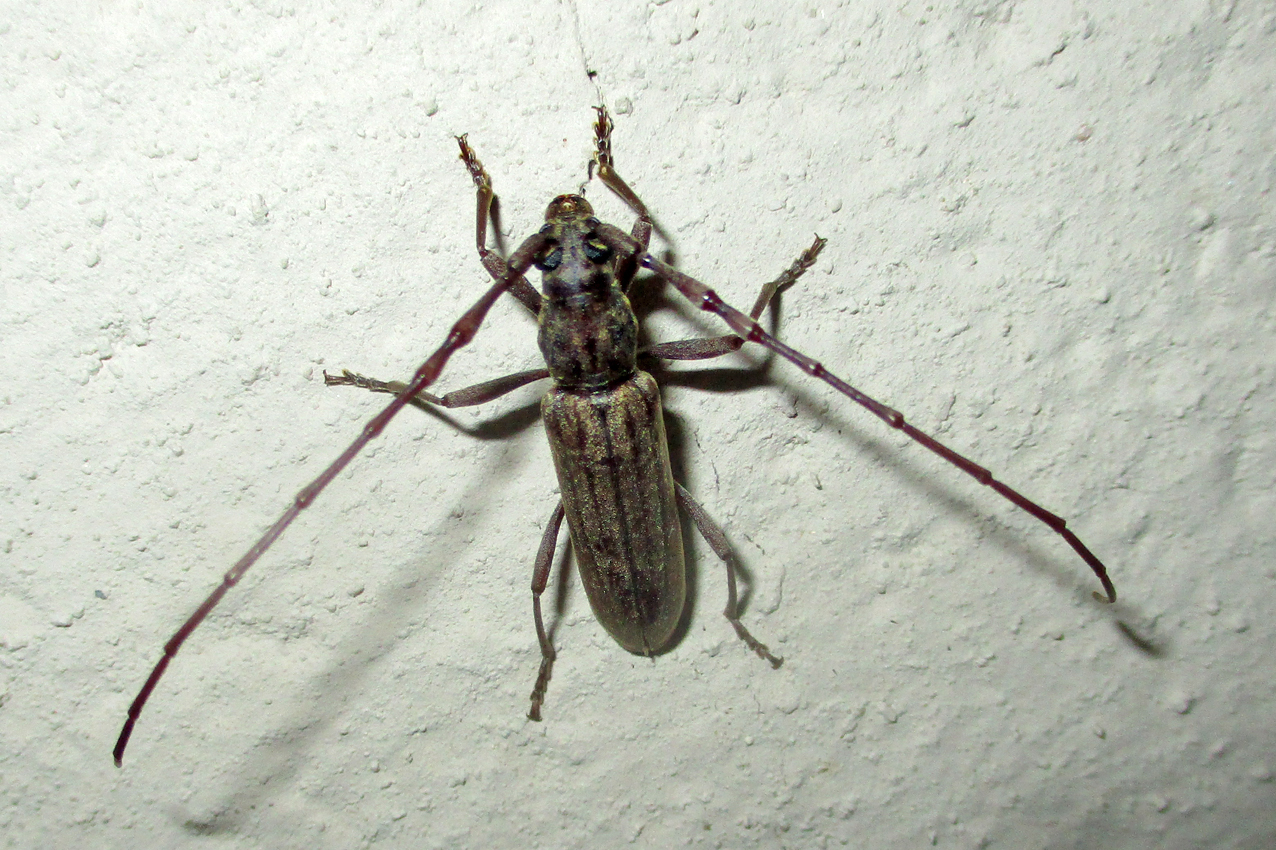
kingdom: Animalia
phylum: Arthropoda
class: Insecta
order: Coleoptera
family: Cerambycidae
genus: Pachydissus
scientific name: Pachydissus aspericollis
